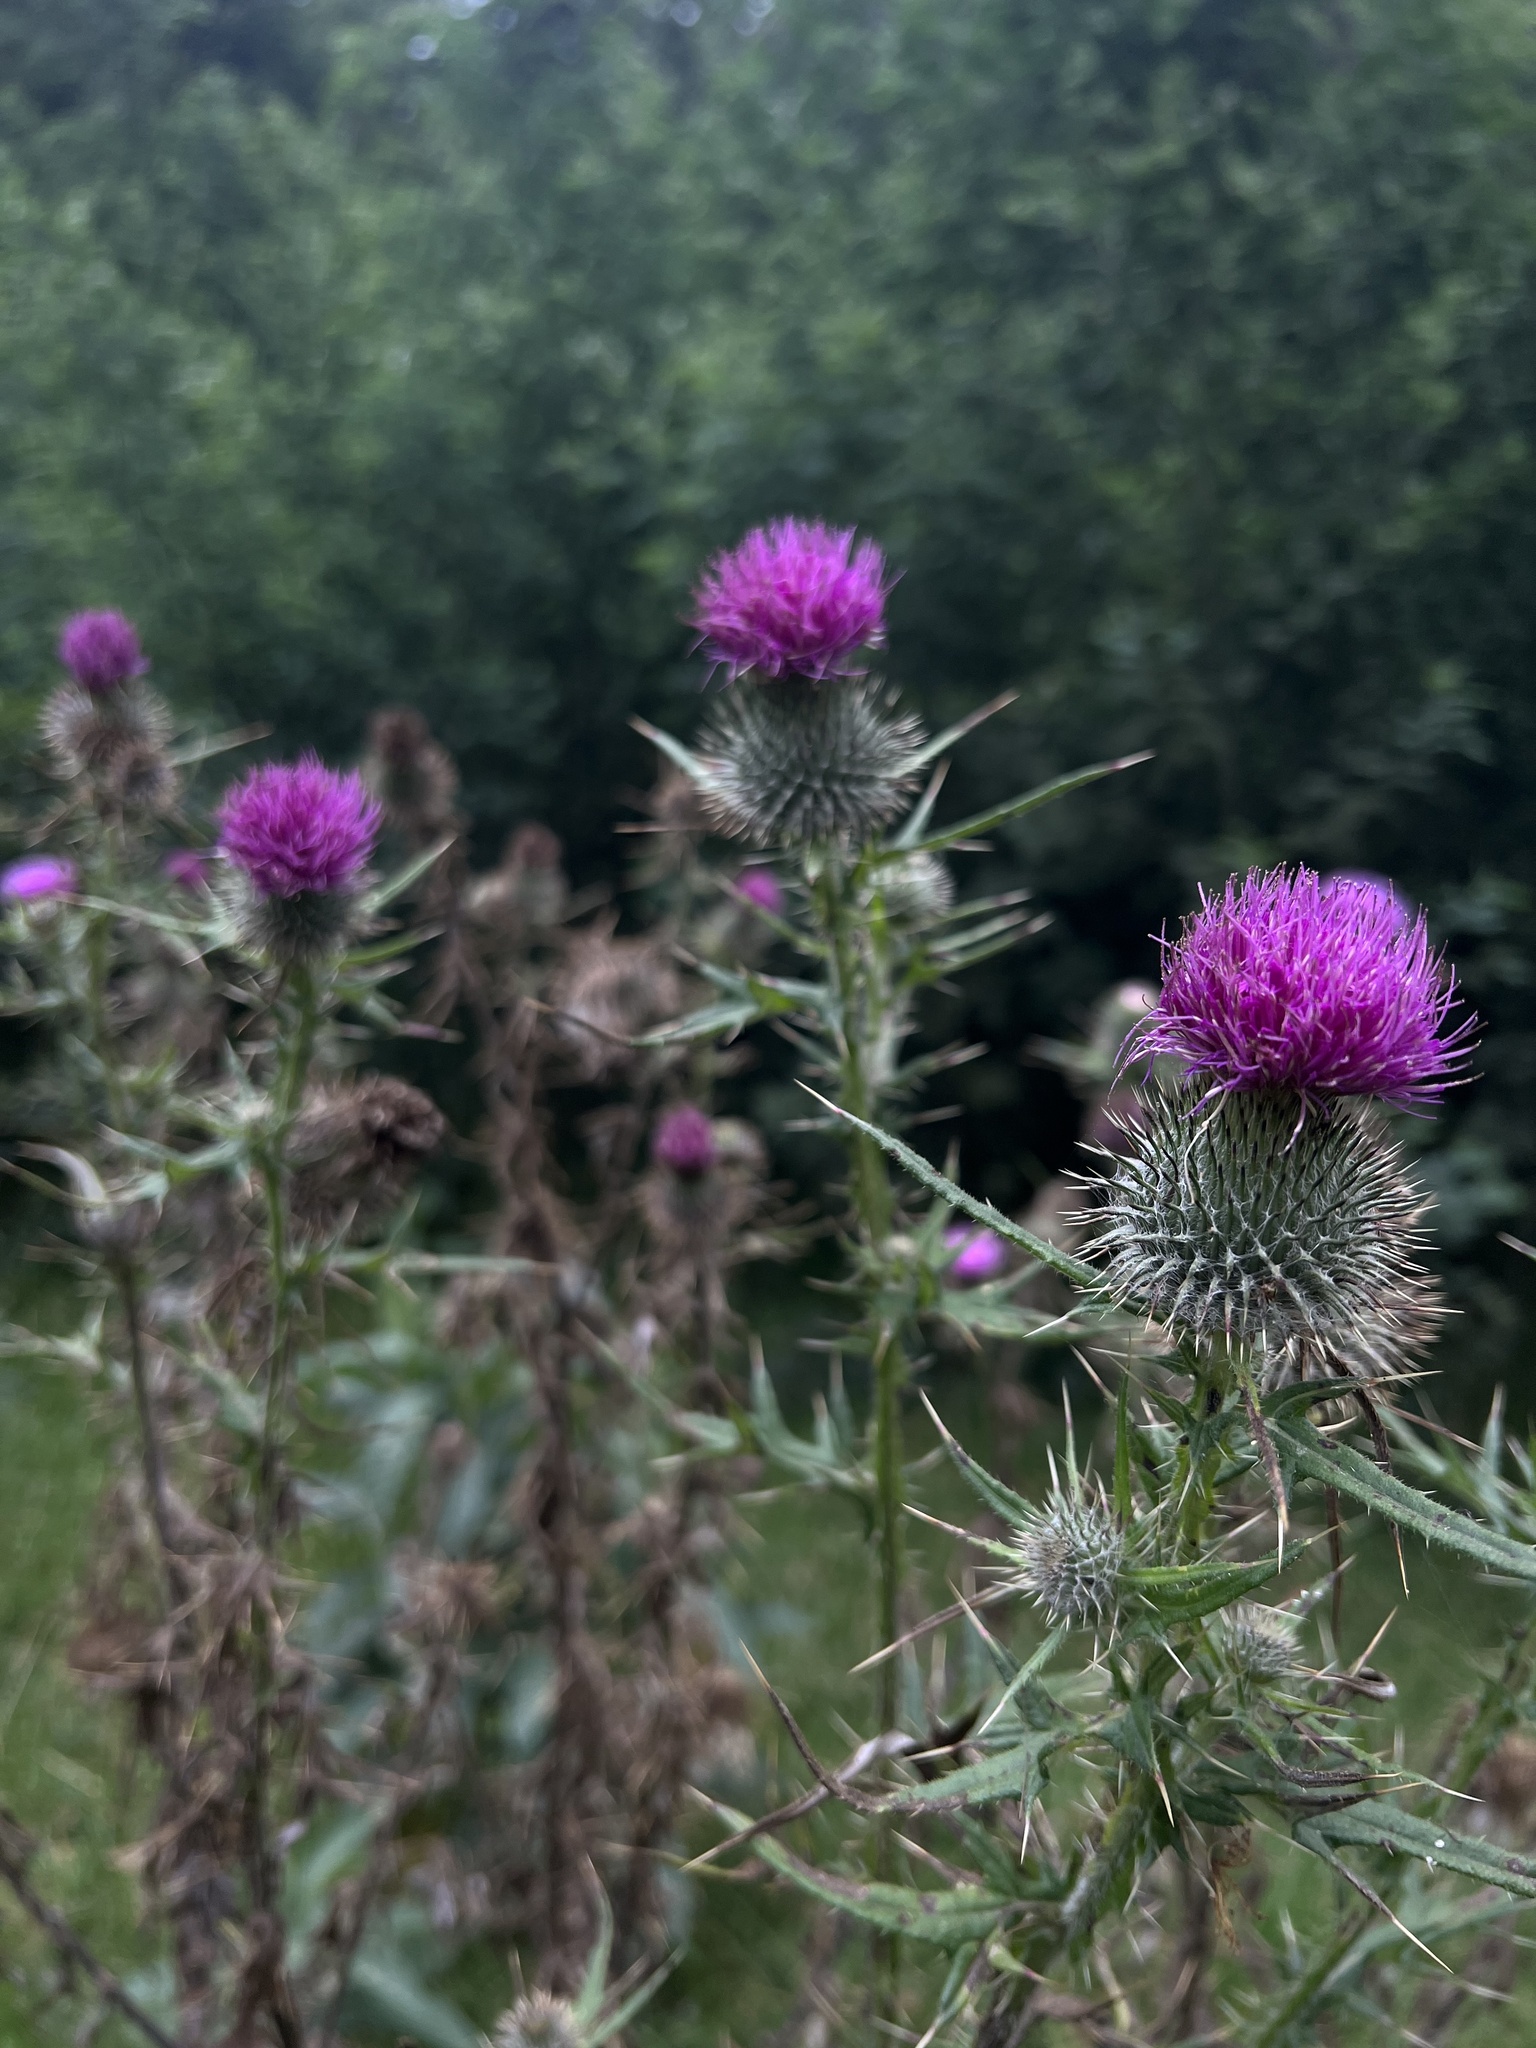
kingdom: Plantae
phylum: Tracheophyta
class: Magnoliopsida
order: Asterales
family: Asteraceae
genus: Cirsium
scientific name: Cirsium vulgare
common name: Bull thistle
